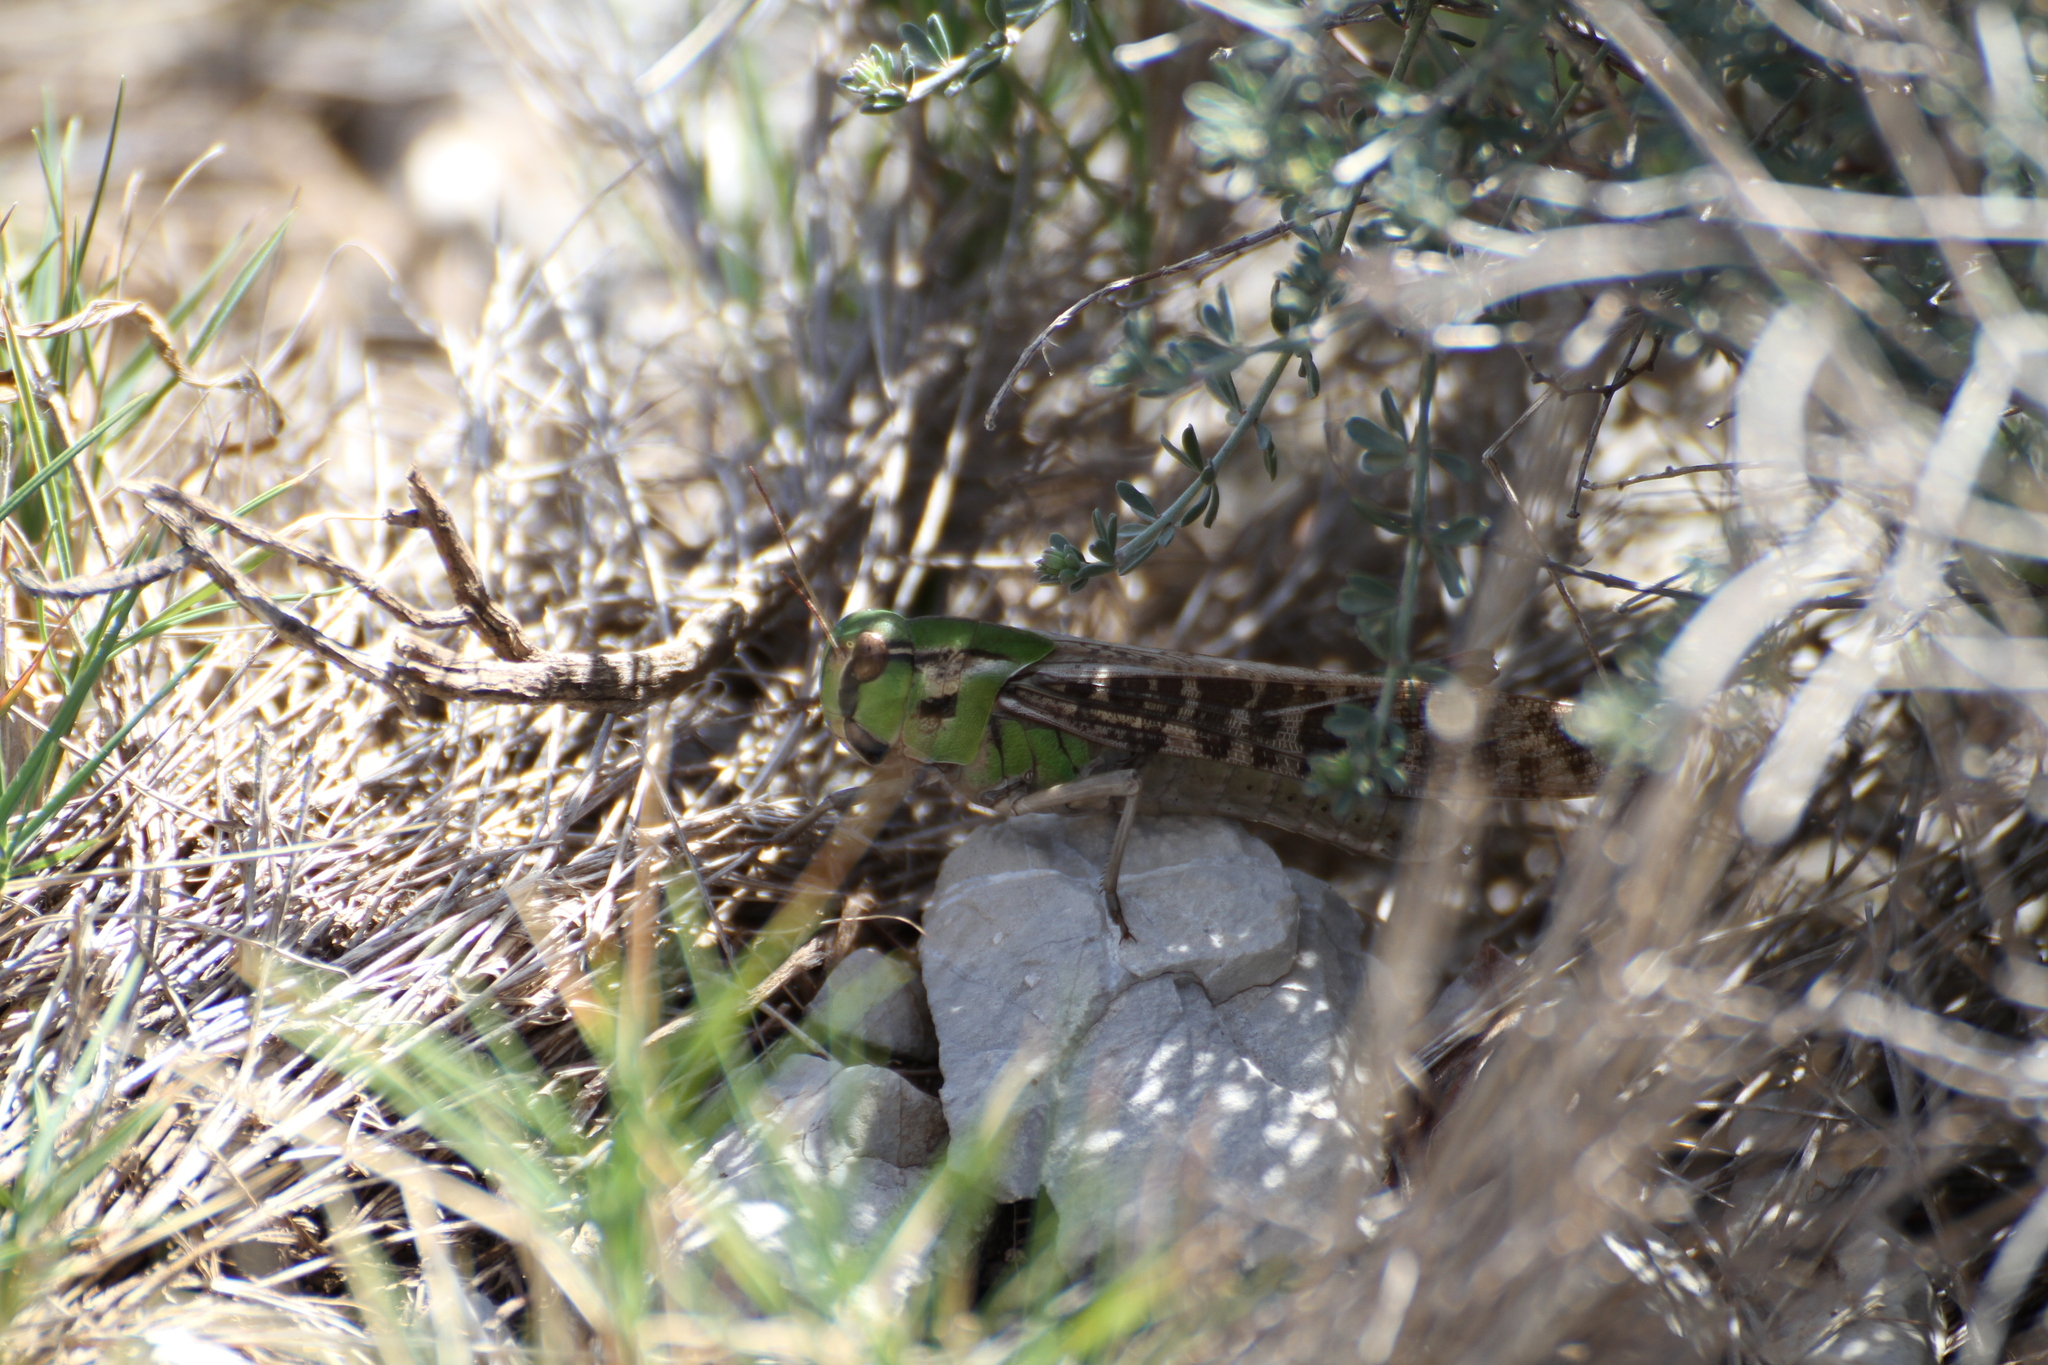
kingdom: Animalia
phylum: Arthropoda
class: Insecta
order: Orthoptera
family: Acrididae
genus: Locusta
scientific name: Locusta migratoria
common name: Migratory locust
